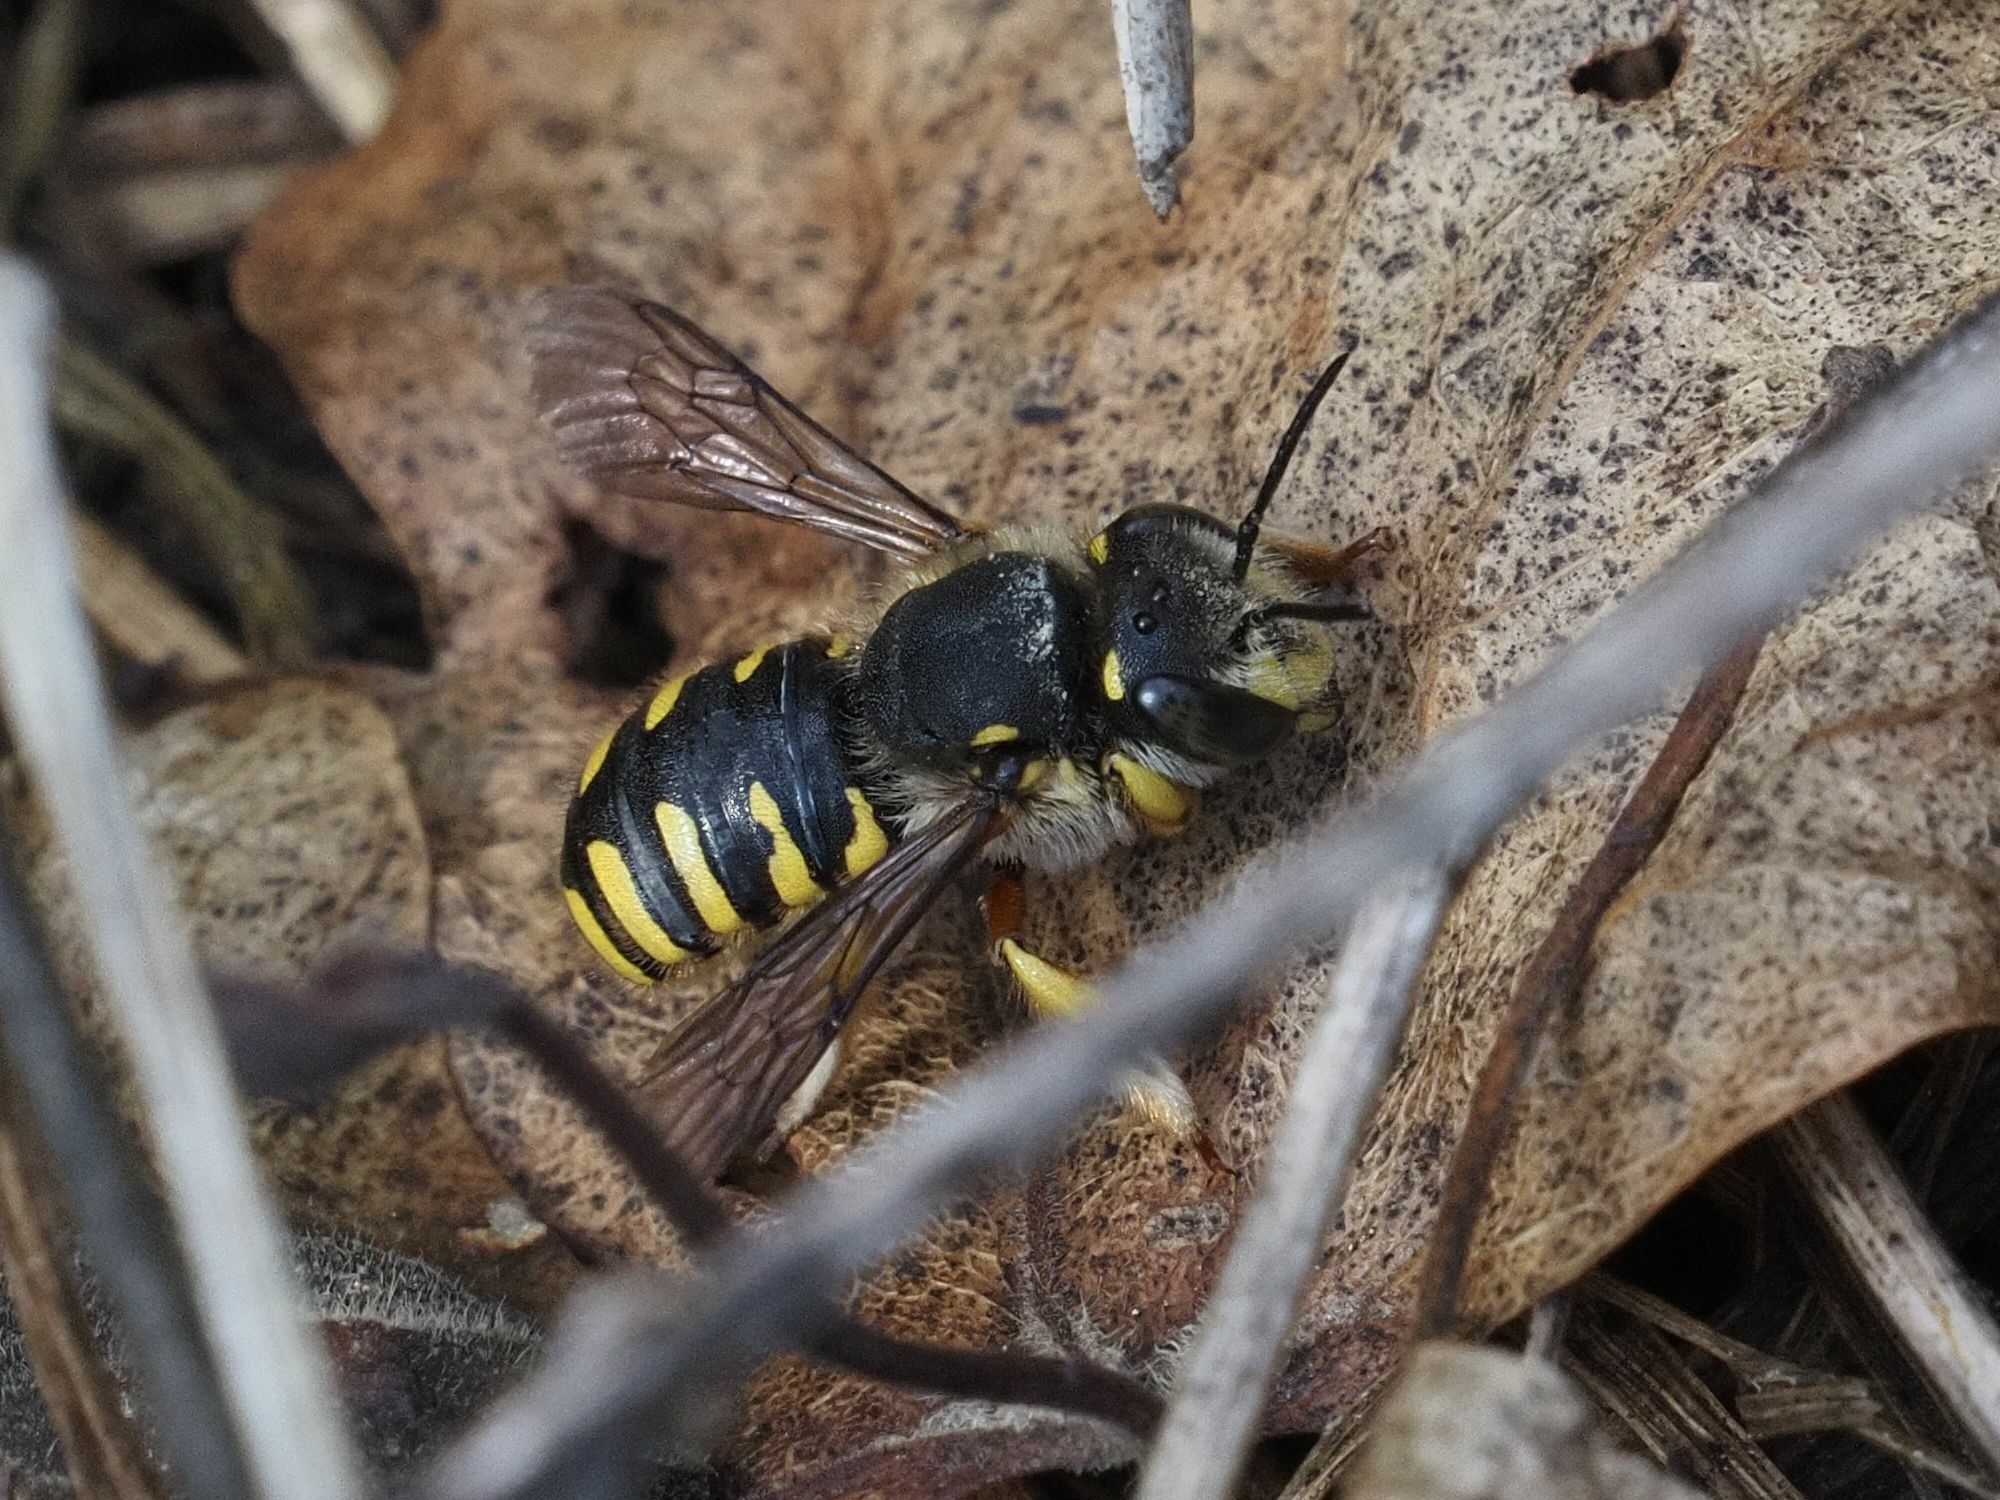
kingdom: Animalia
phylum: Arthropoda
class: Insecta
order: Hymenoptera
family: Megachilidae
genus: Anthidium
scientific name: Anthidium manicatum
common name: Wool carder bee
